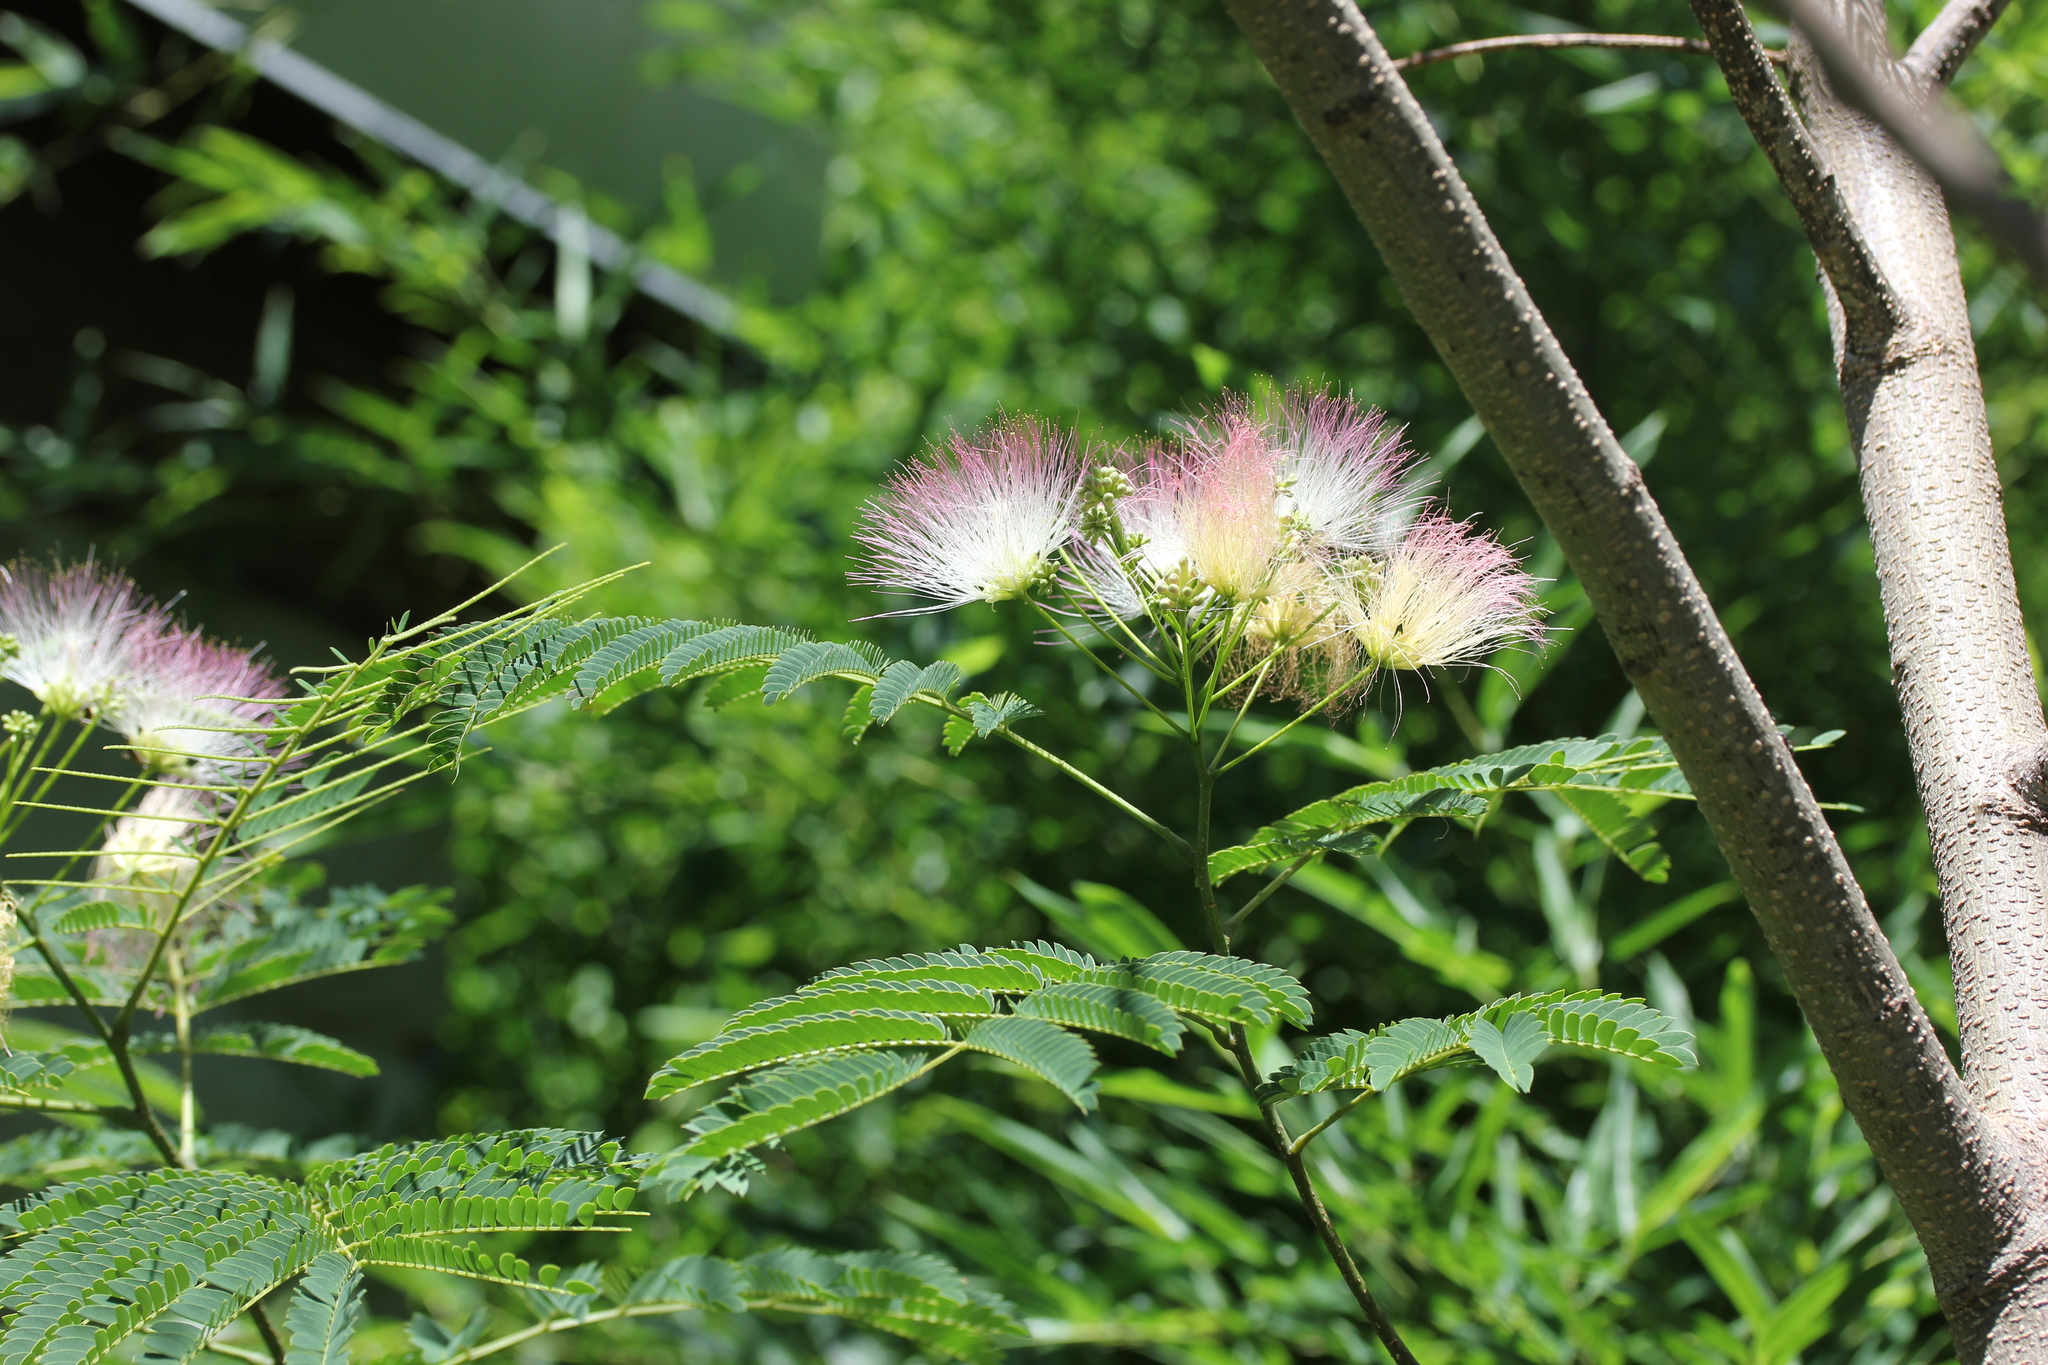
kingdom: Plantae
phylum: Tracheophyta
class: Magnoliopsida
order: Fabales
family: Fabaceae
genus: Albizia
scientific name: Albizia julibrissin
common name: Silktree
